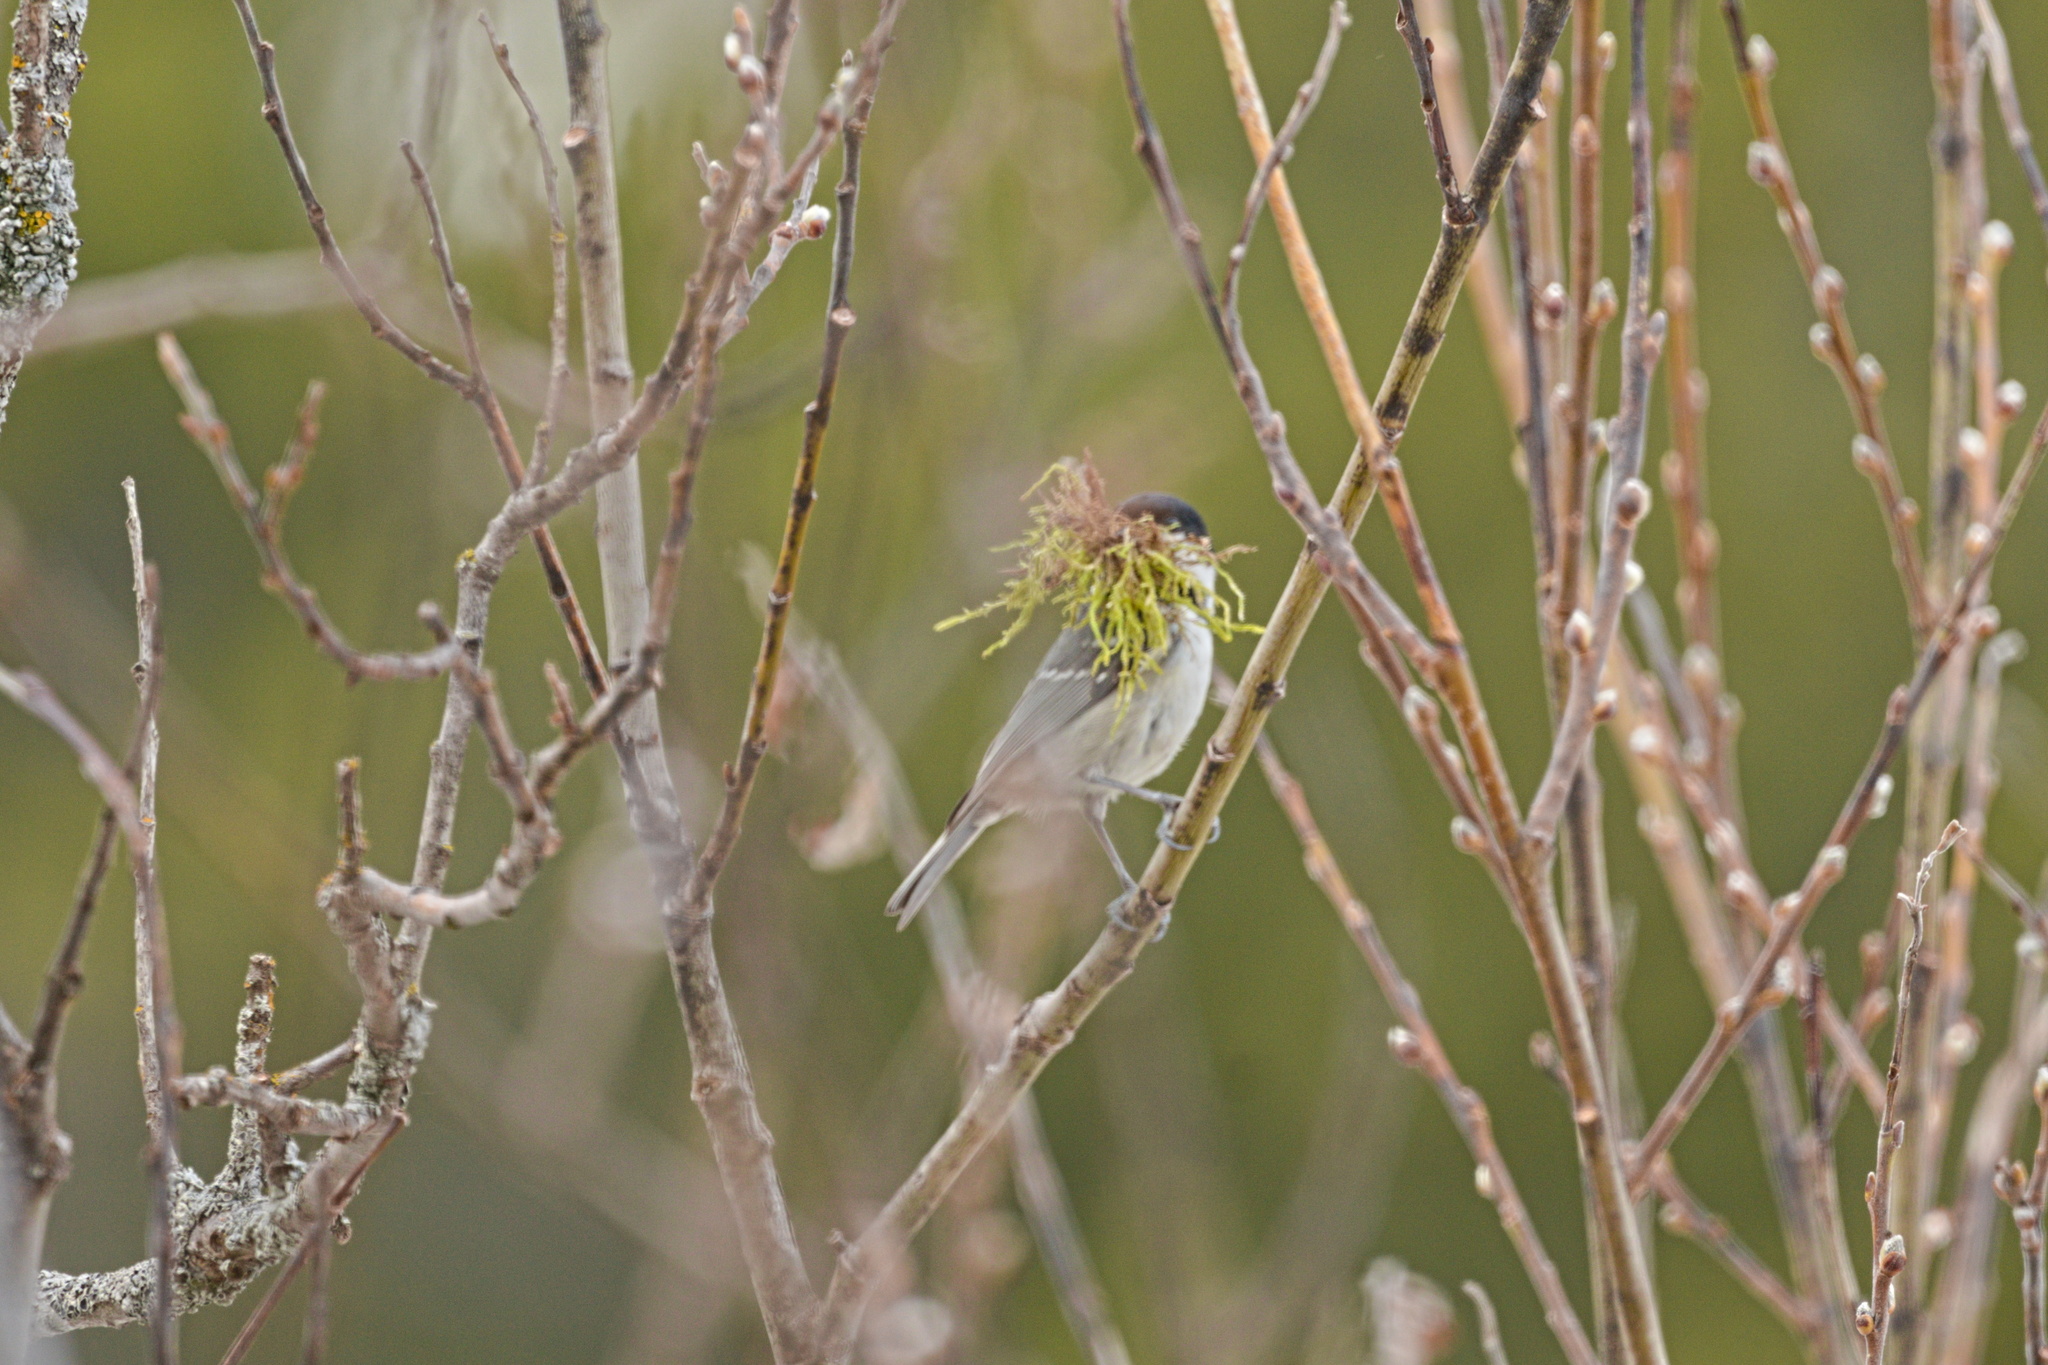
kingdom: Animalia
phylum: Chordata
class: Aves
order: Passeriformes
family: Paridae
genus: Periparus
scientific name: Periparus ater
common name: Coal tit
